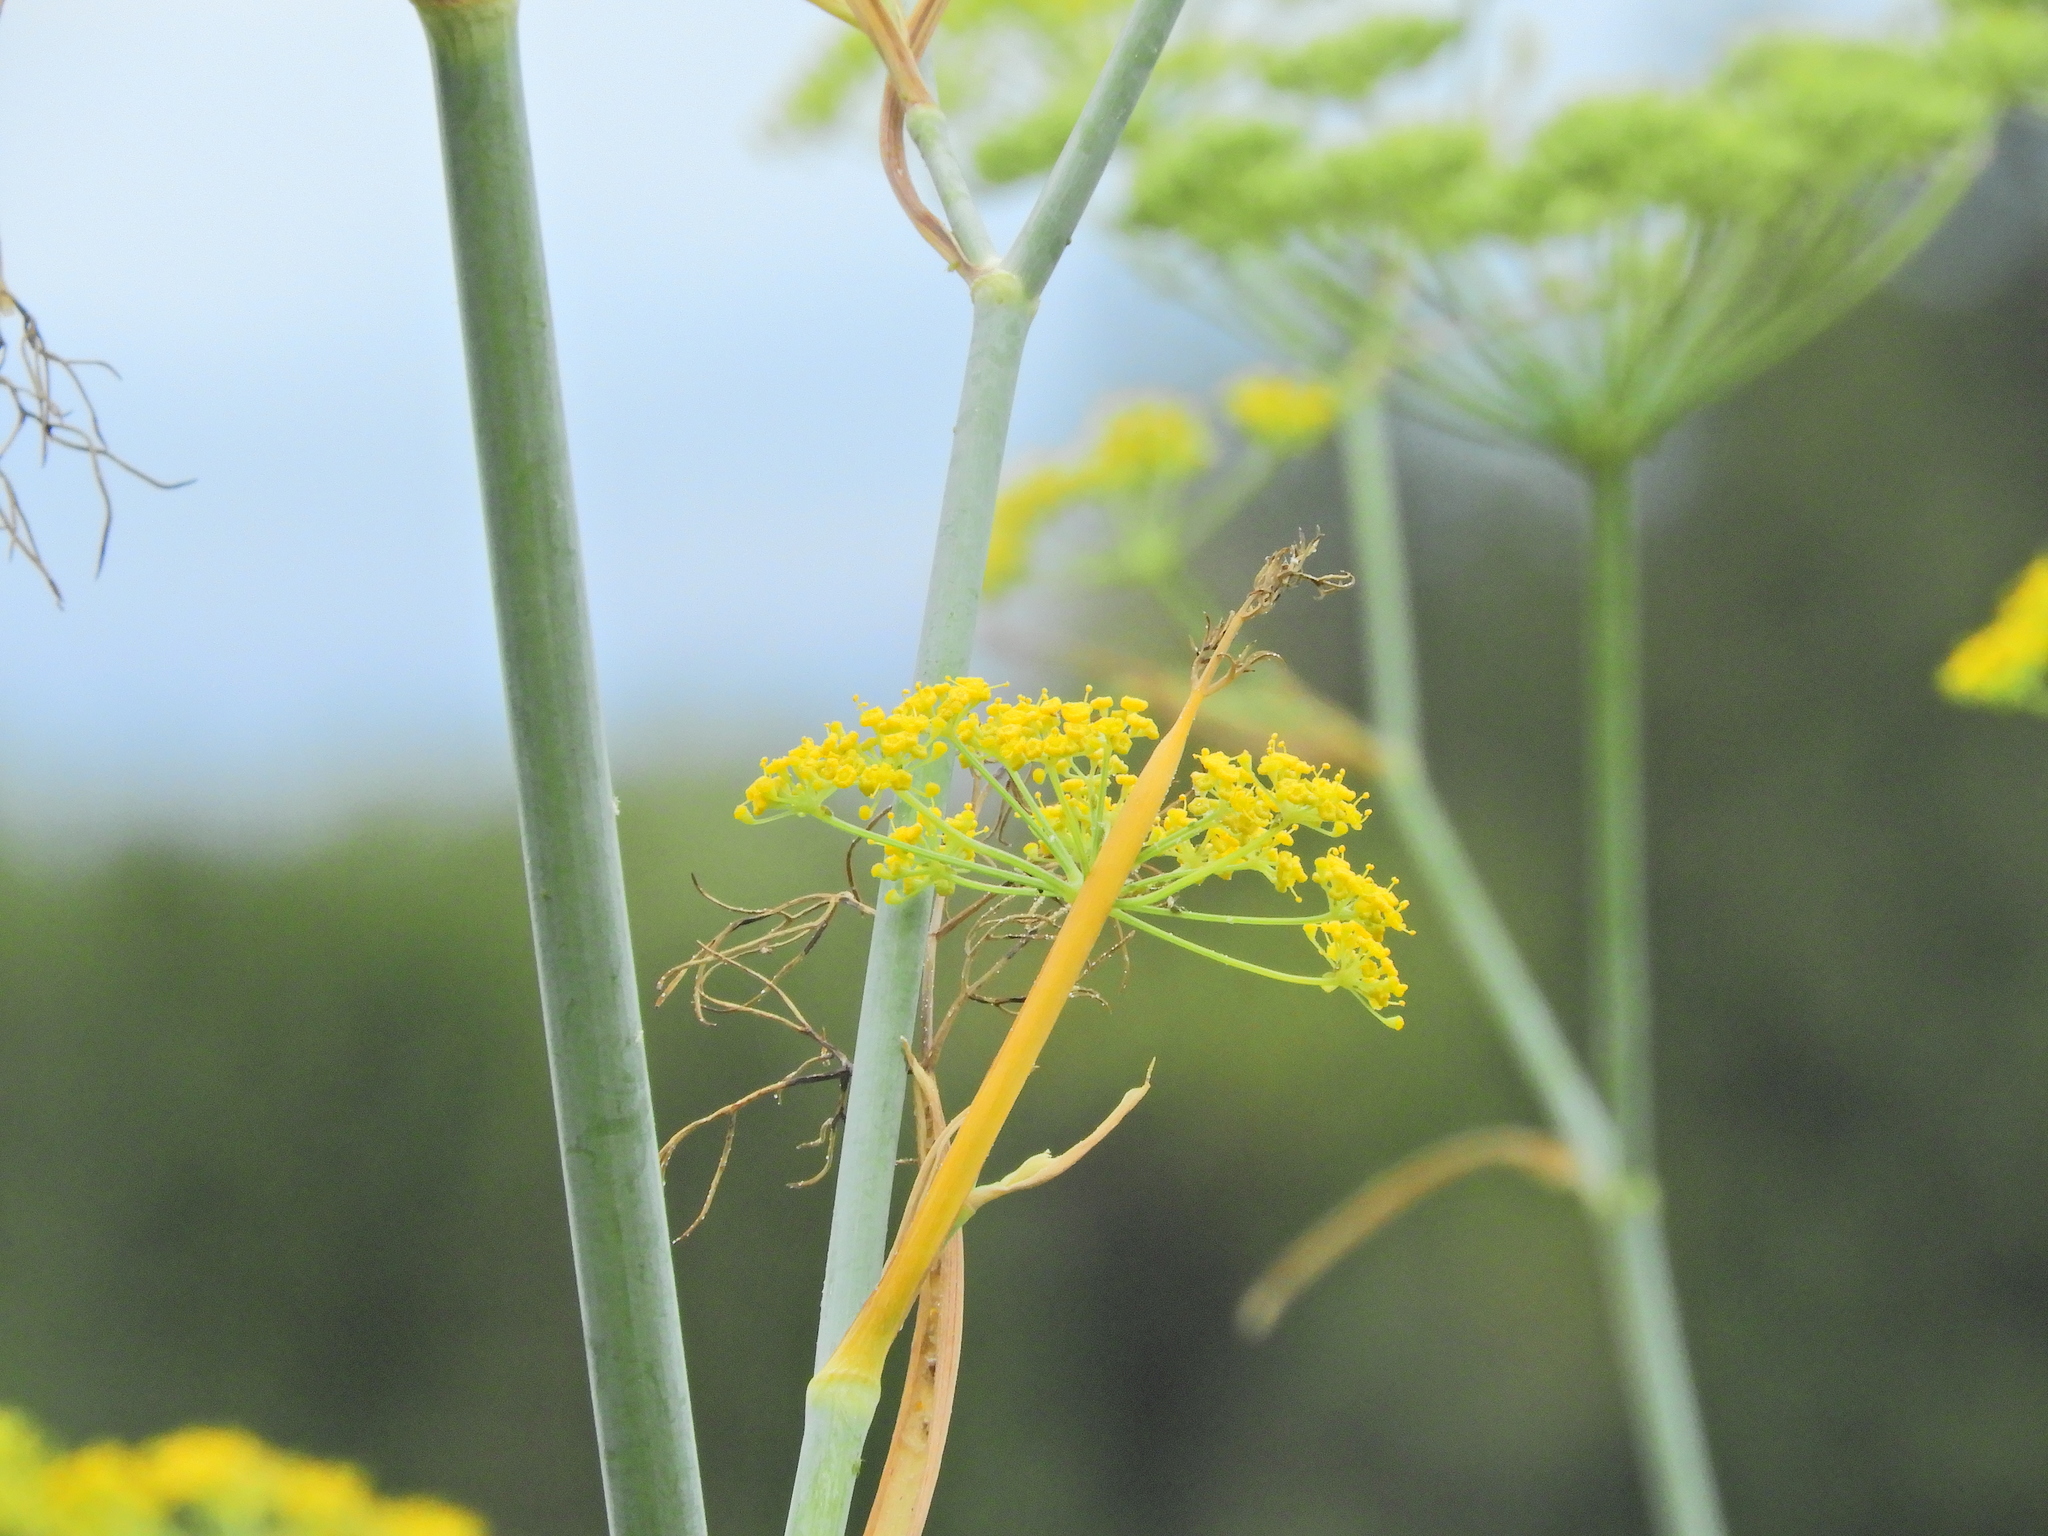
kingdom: Plantae
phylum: Tracheophyta
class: Magnoliopsida
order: Apiales
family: Apiaceae
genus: Foeniculum
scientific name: Foeniculum vulgare
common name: Fennel
